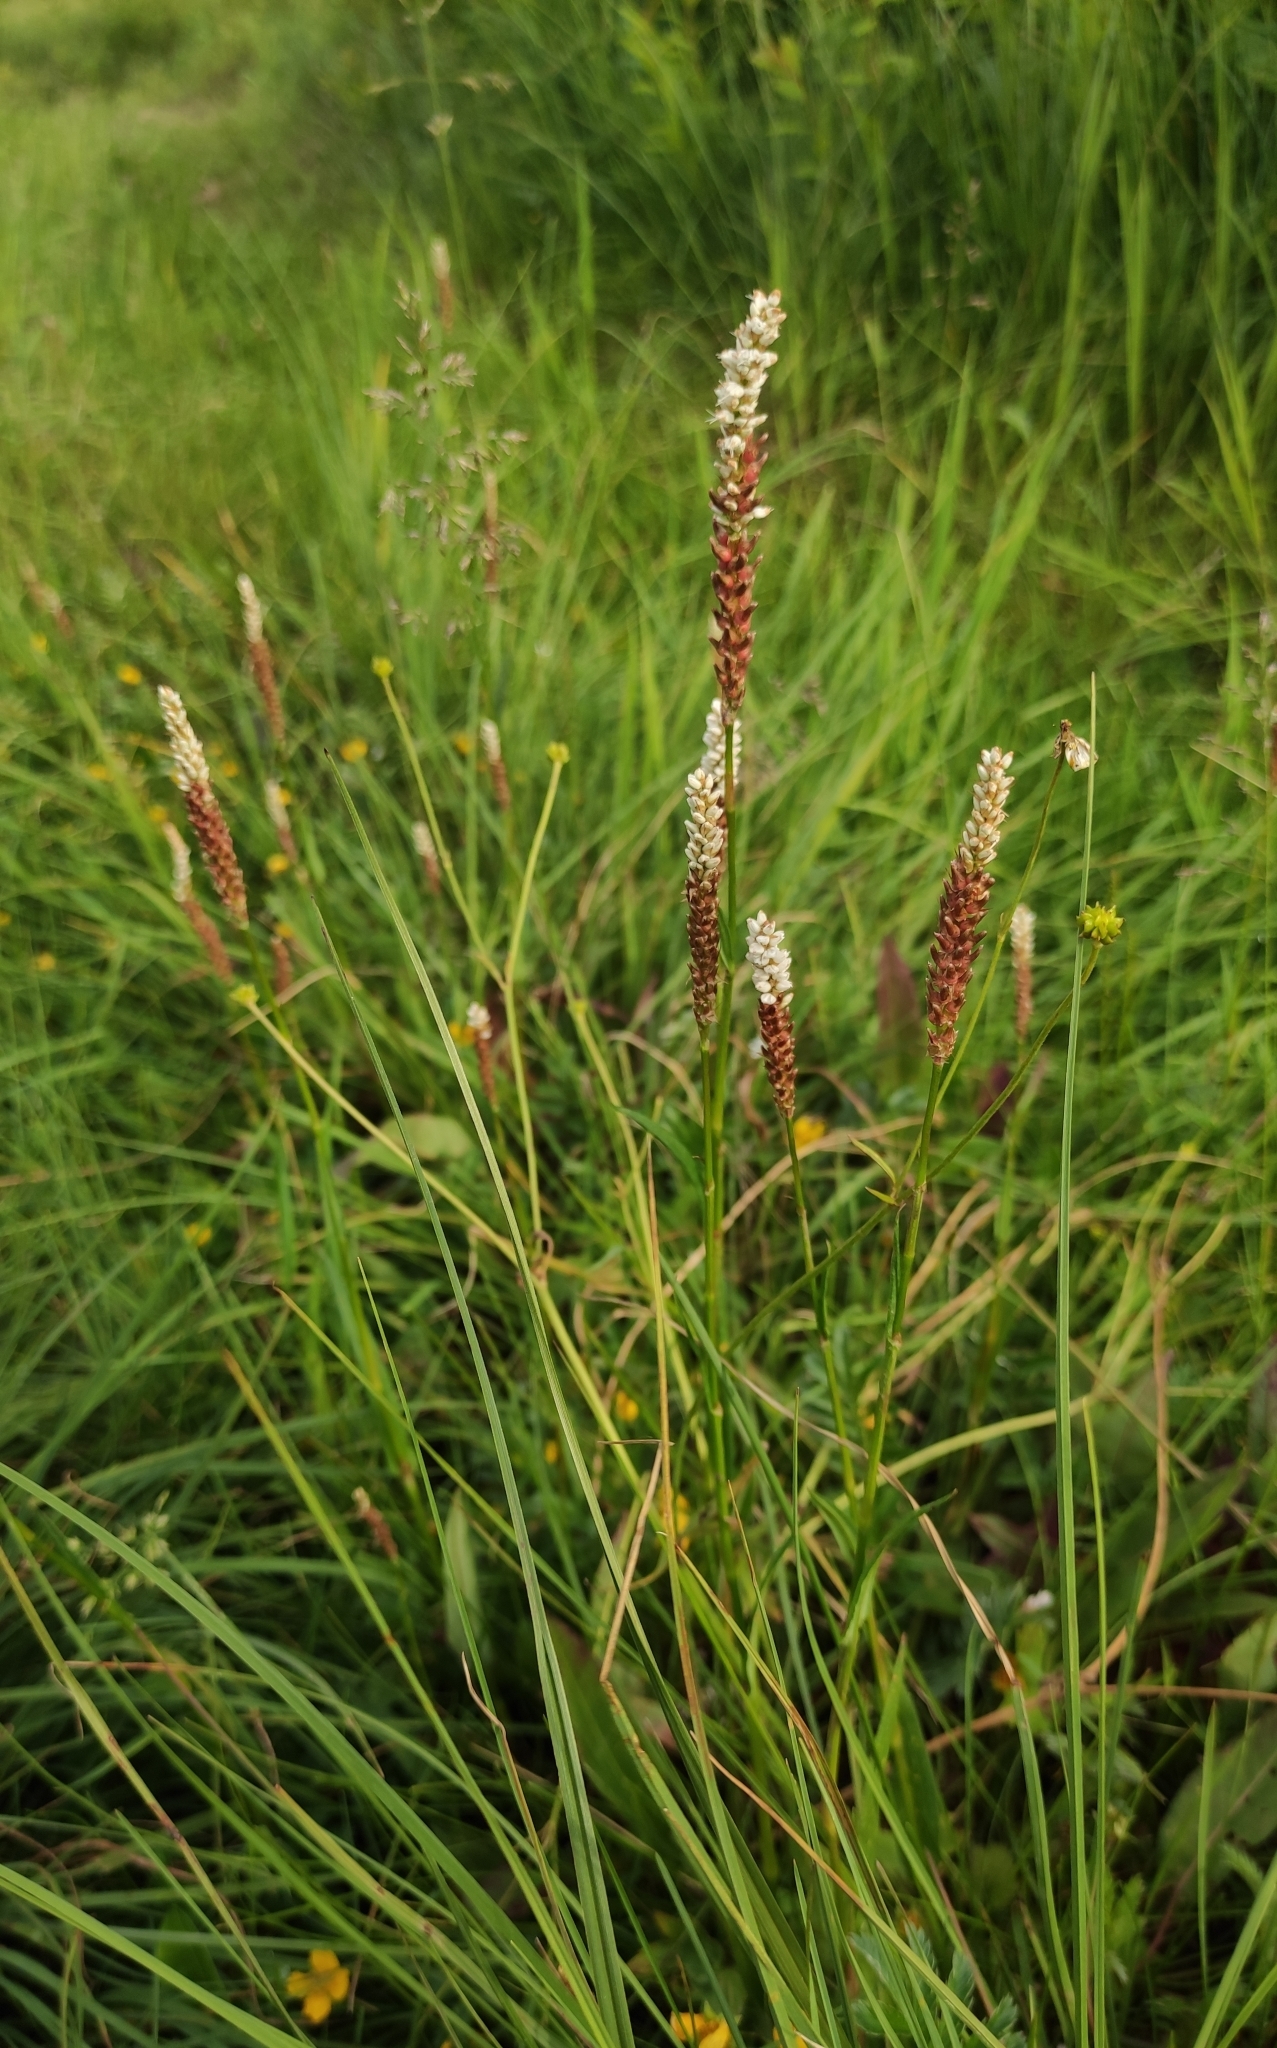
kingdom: Plantae
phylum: Tracheophyta
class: Magnoliopsida
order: Caryophyllales
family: Polygonaceae
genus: Bistorta
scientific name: Bistorta vivipara
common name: Alpine bistort
